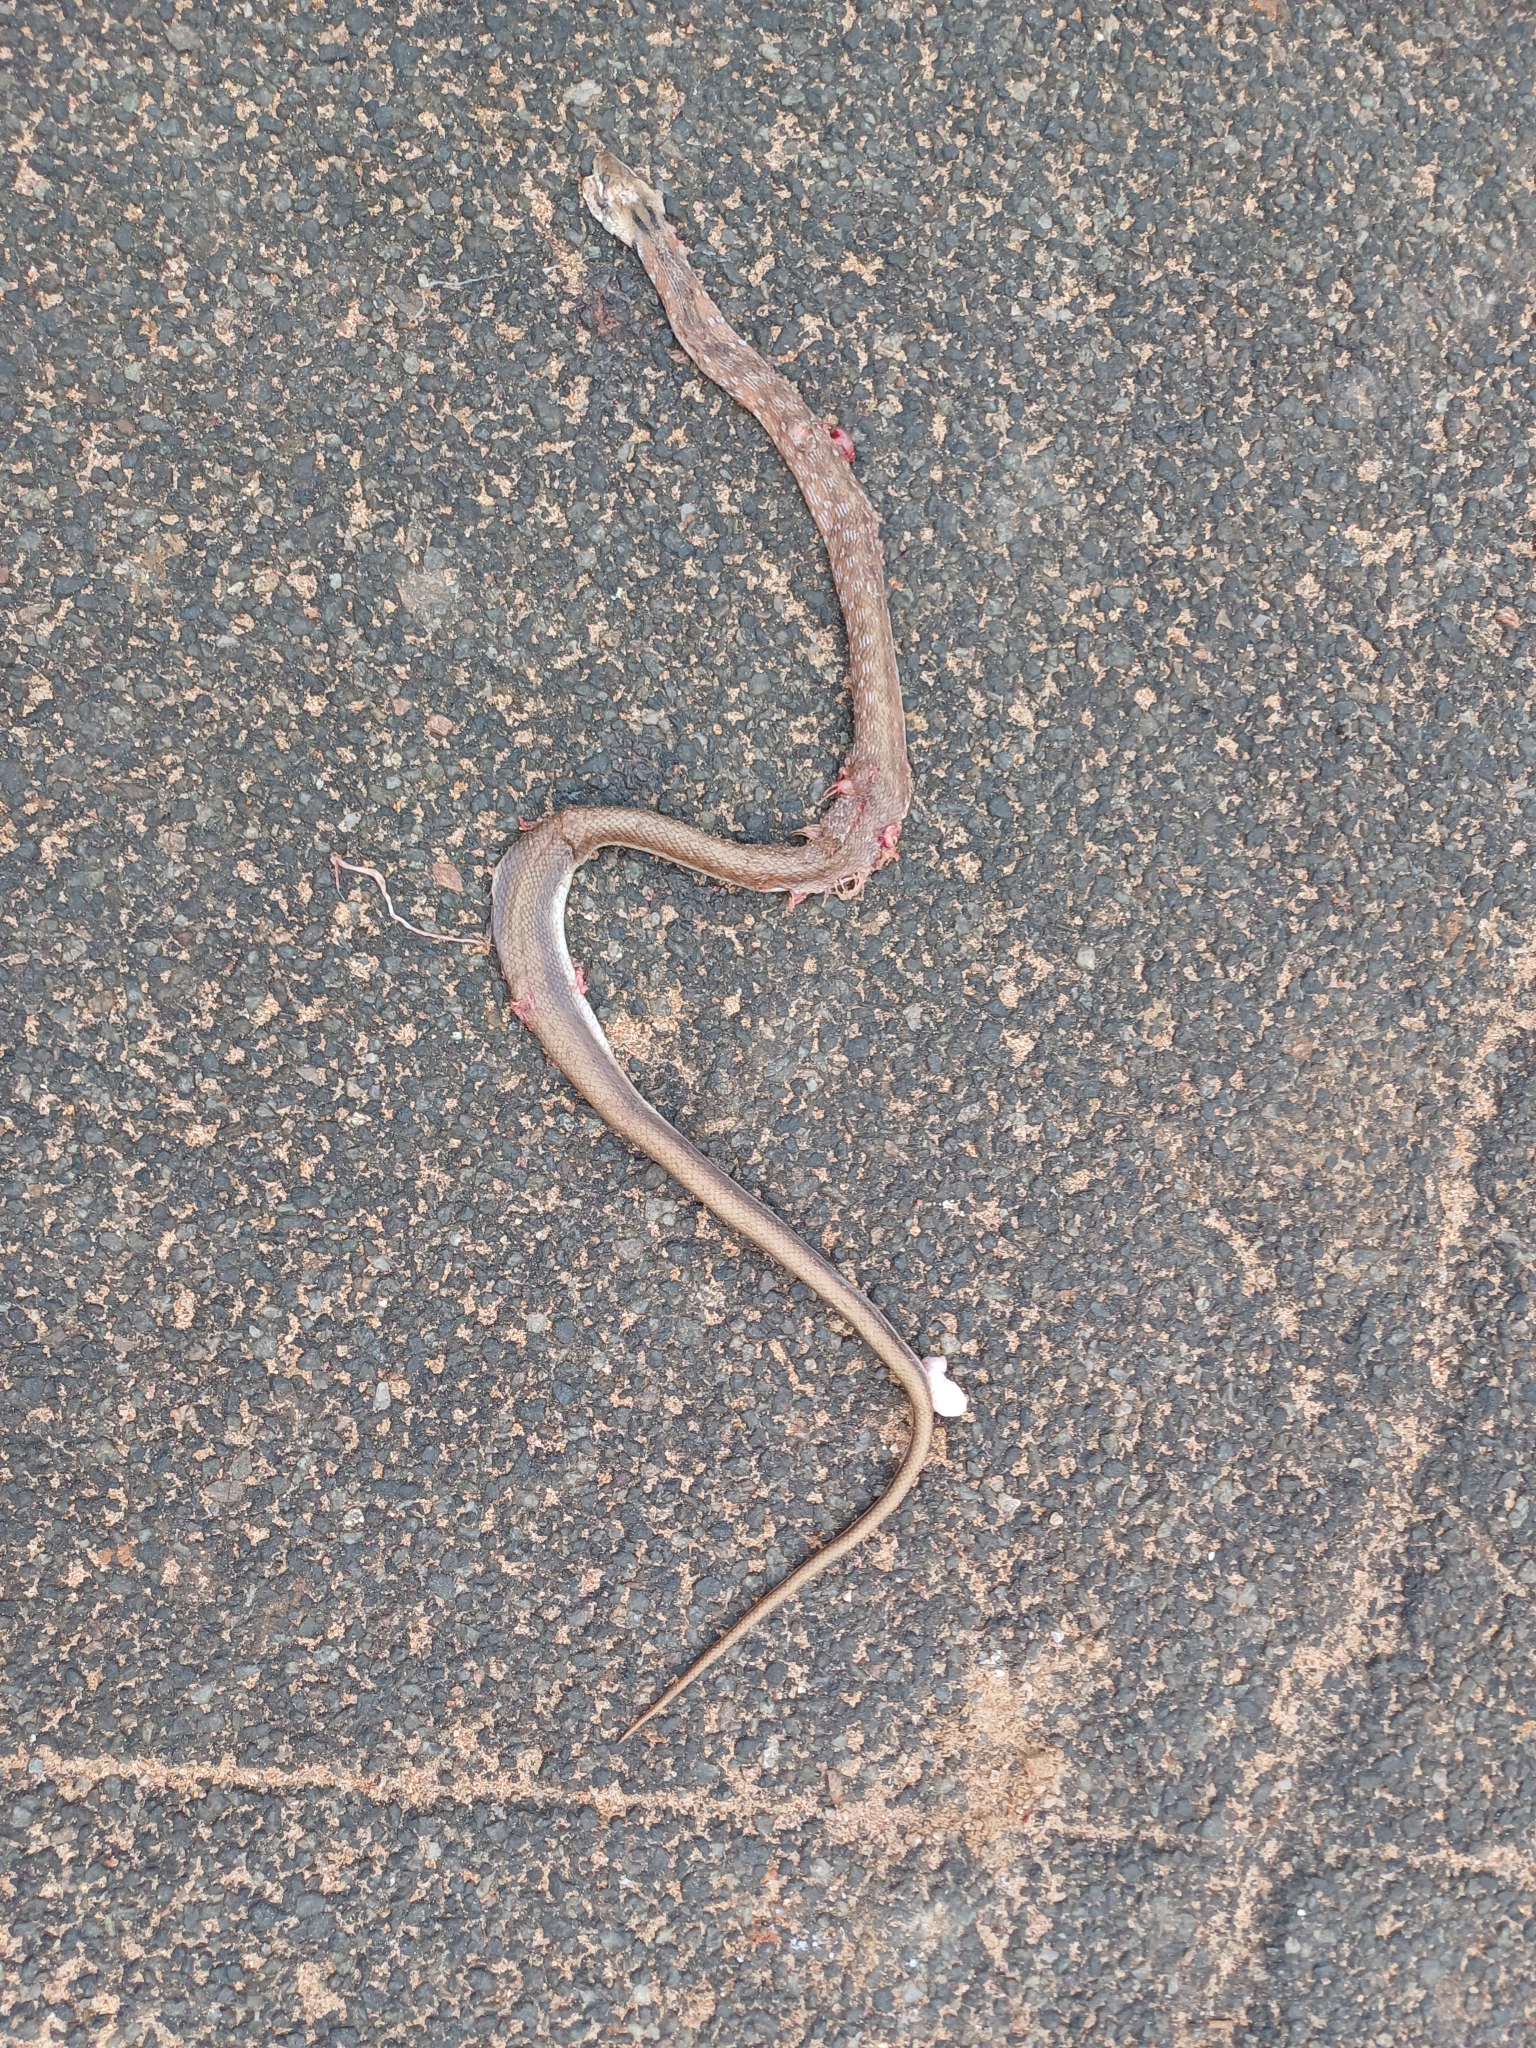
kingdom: Animalia
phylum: Chordata
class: Squamata
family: Colubridae
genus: Coelognathus
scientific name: Coelognathus helena
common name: Trinket snake
